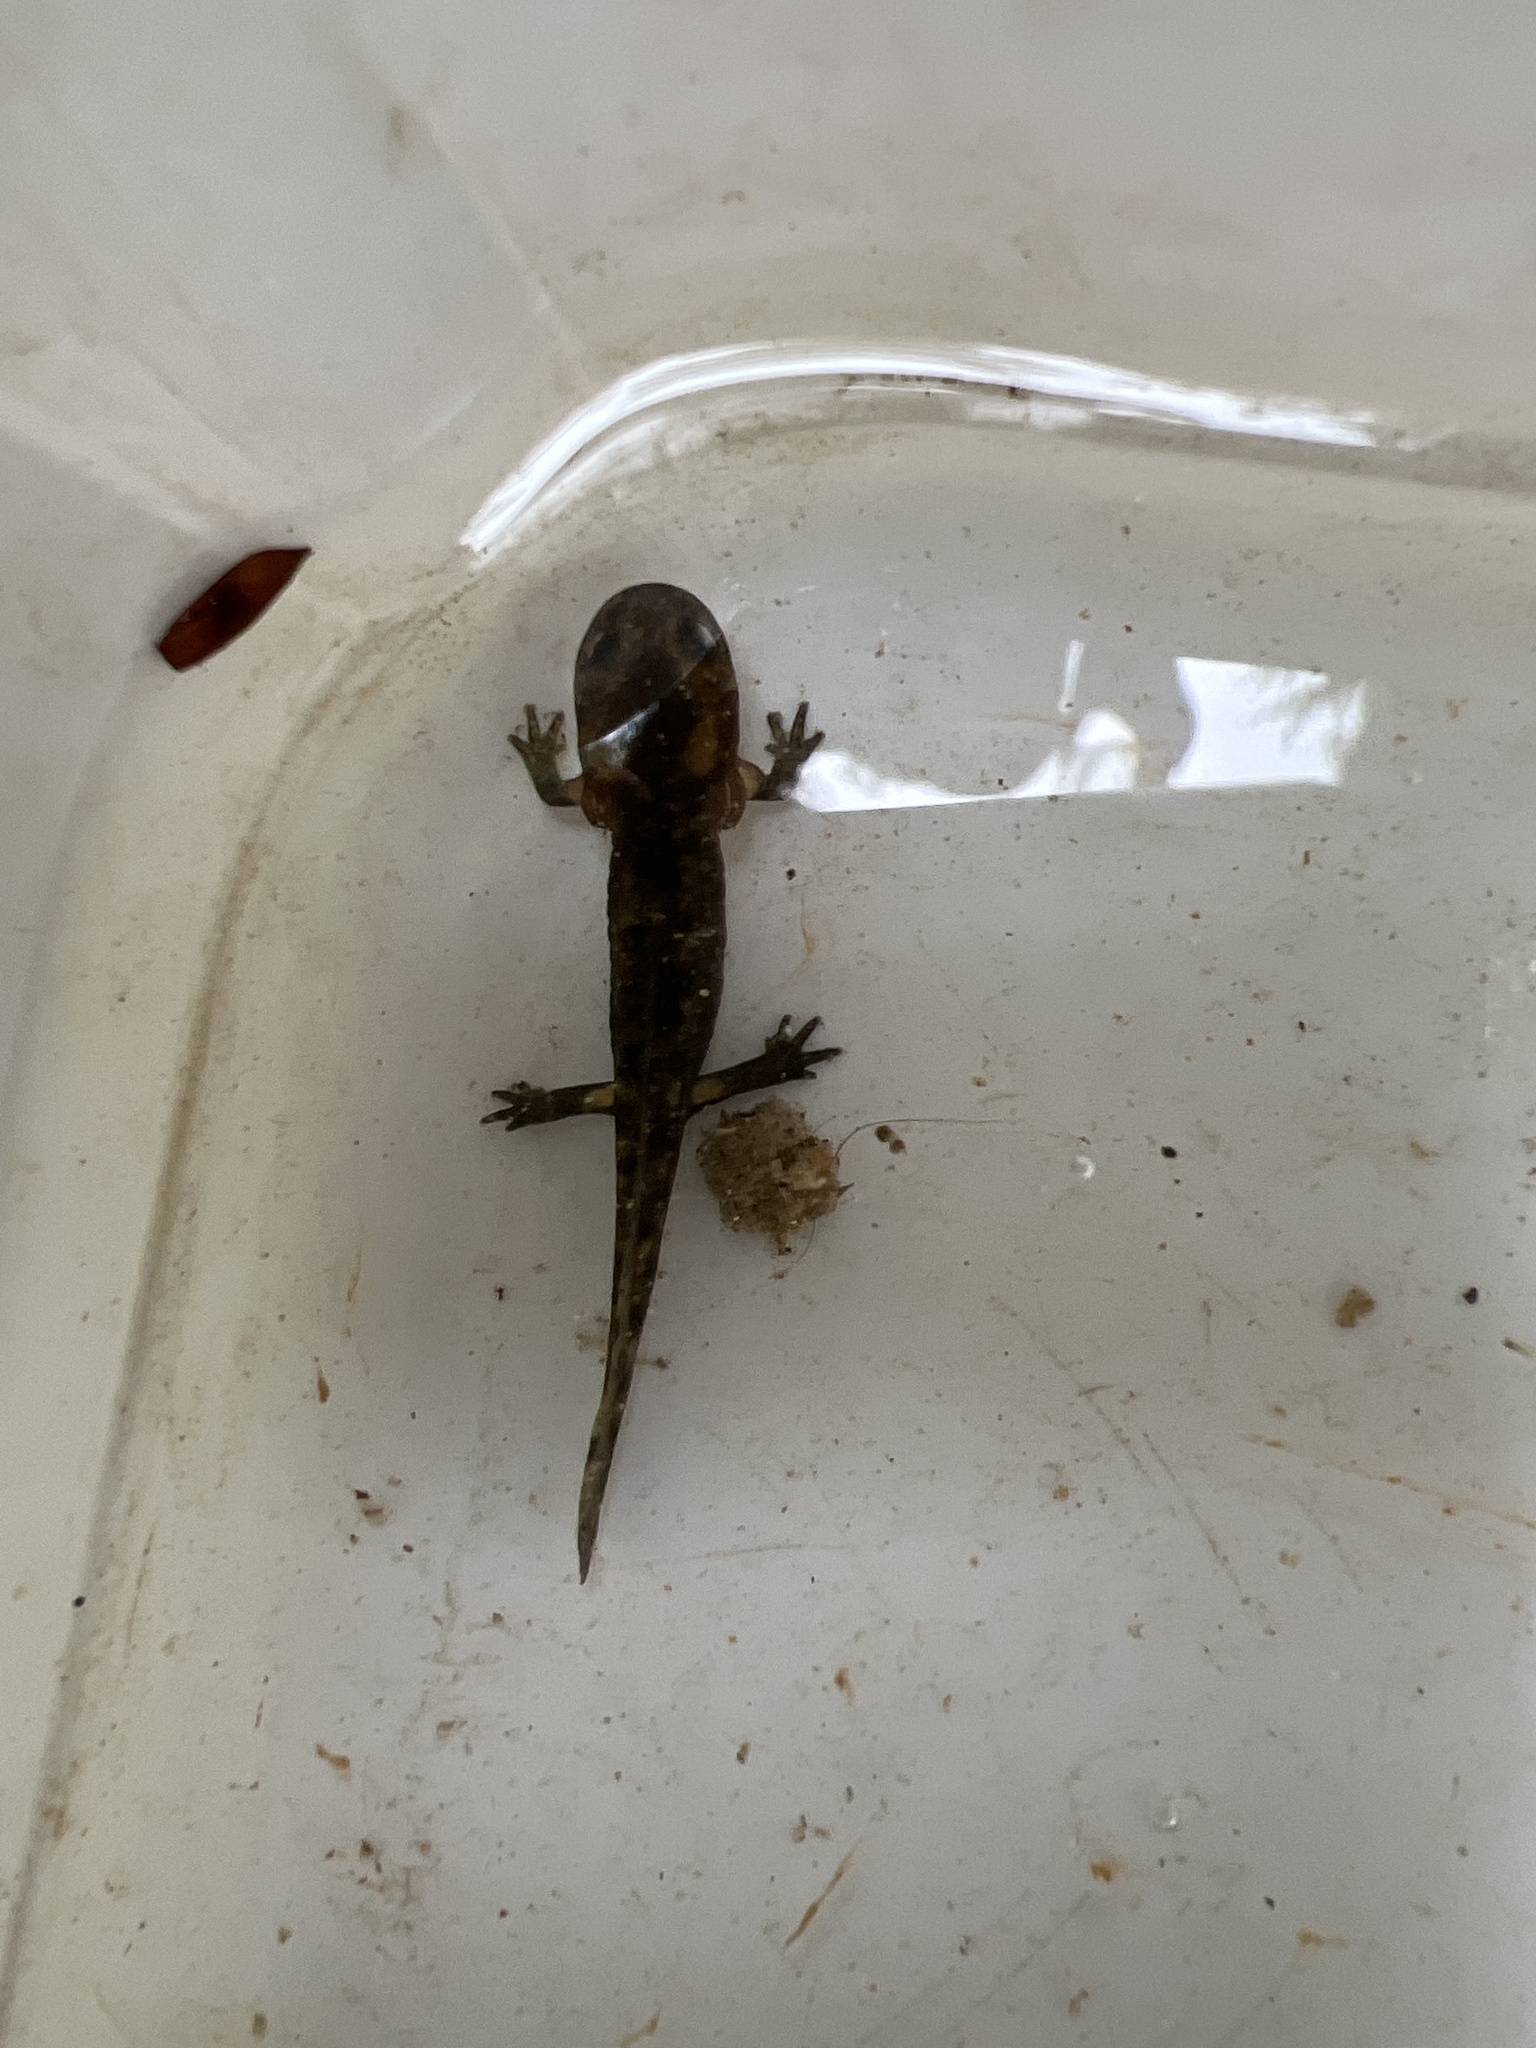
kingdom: Animalia
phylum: Chordata
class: Amphibia
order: Caudata
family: Salamandridae
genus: Salamandra
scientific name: Salamandra salamandra
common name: Fire salamander
